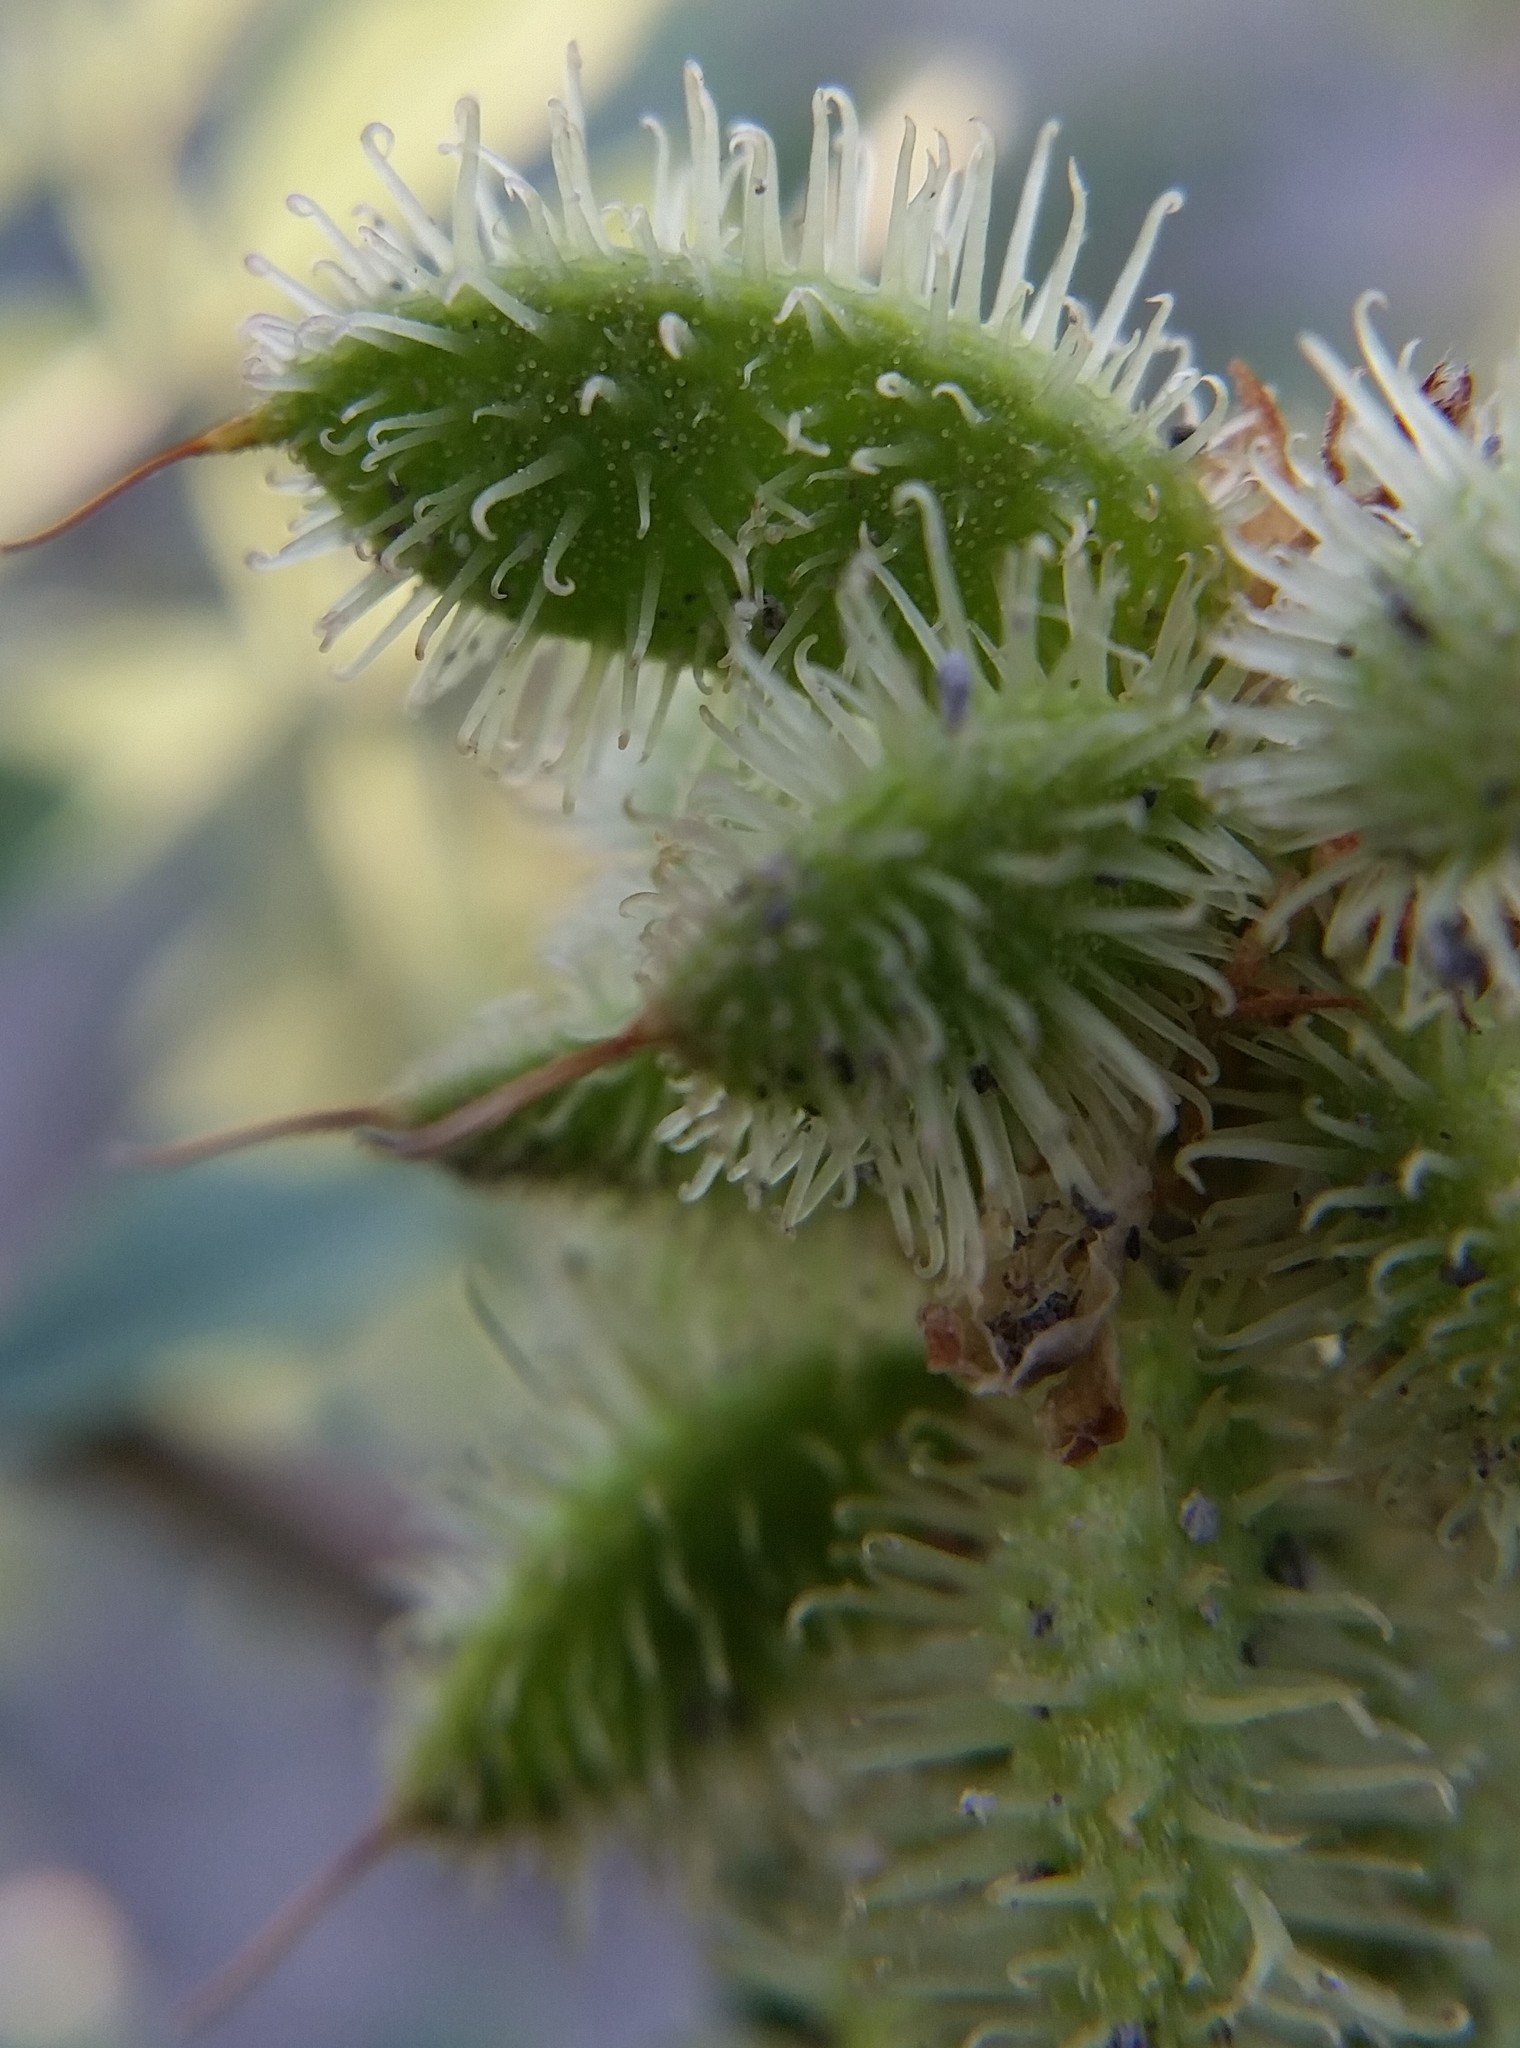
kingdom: Plantae
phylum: Tracheophyta
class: Magnoliopsida
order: Fabales
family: Fabaceae
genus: Glycyrrhiza
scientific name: Glycyrrhiza lepidota
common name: American liquorice
